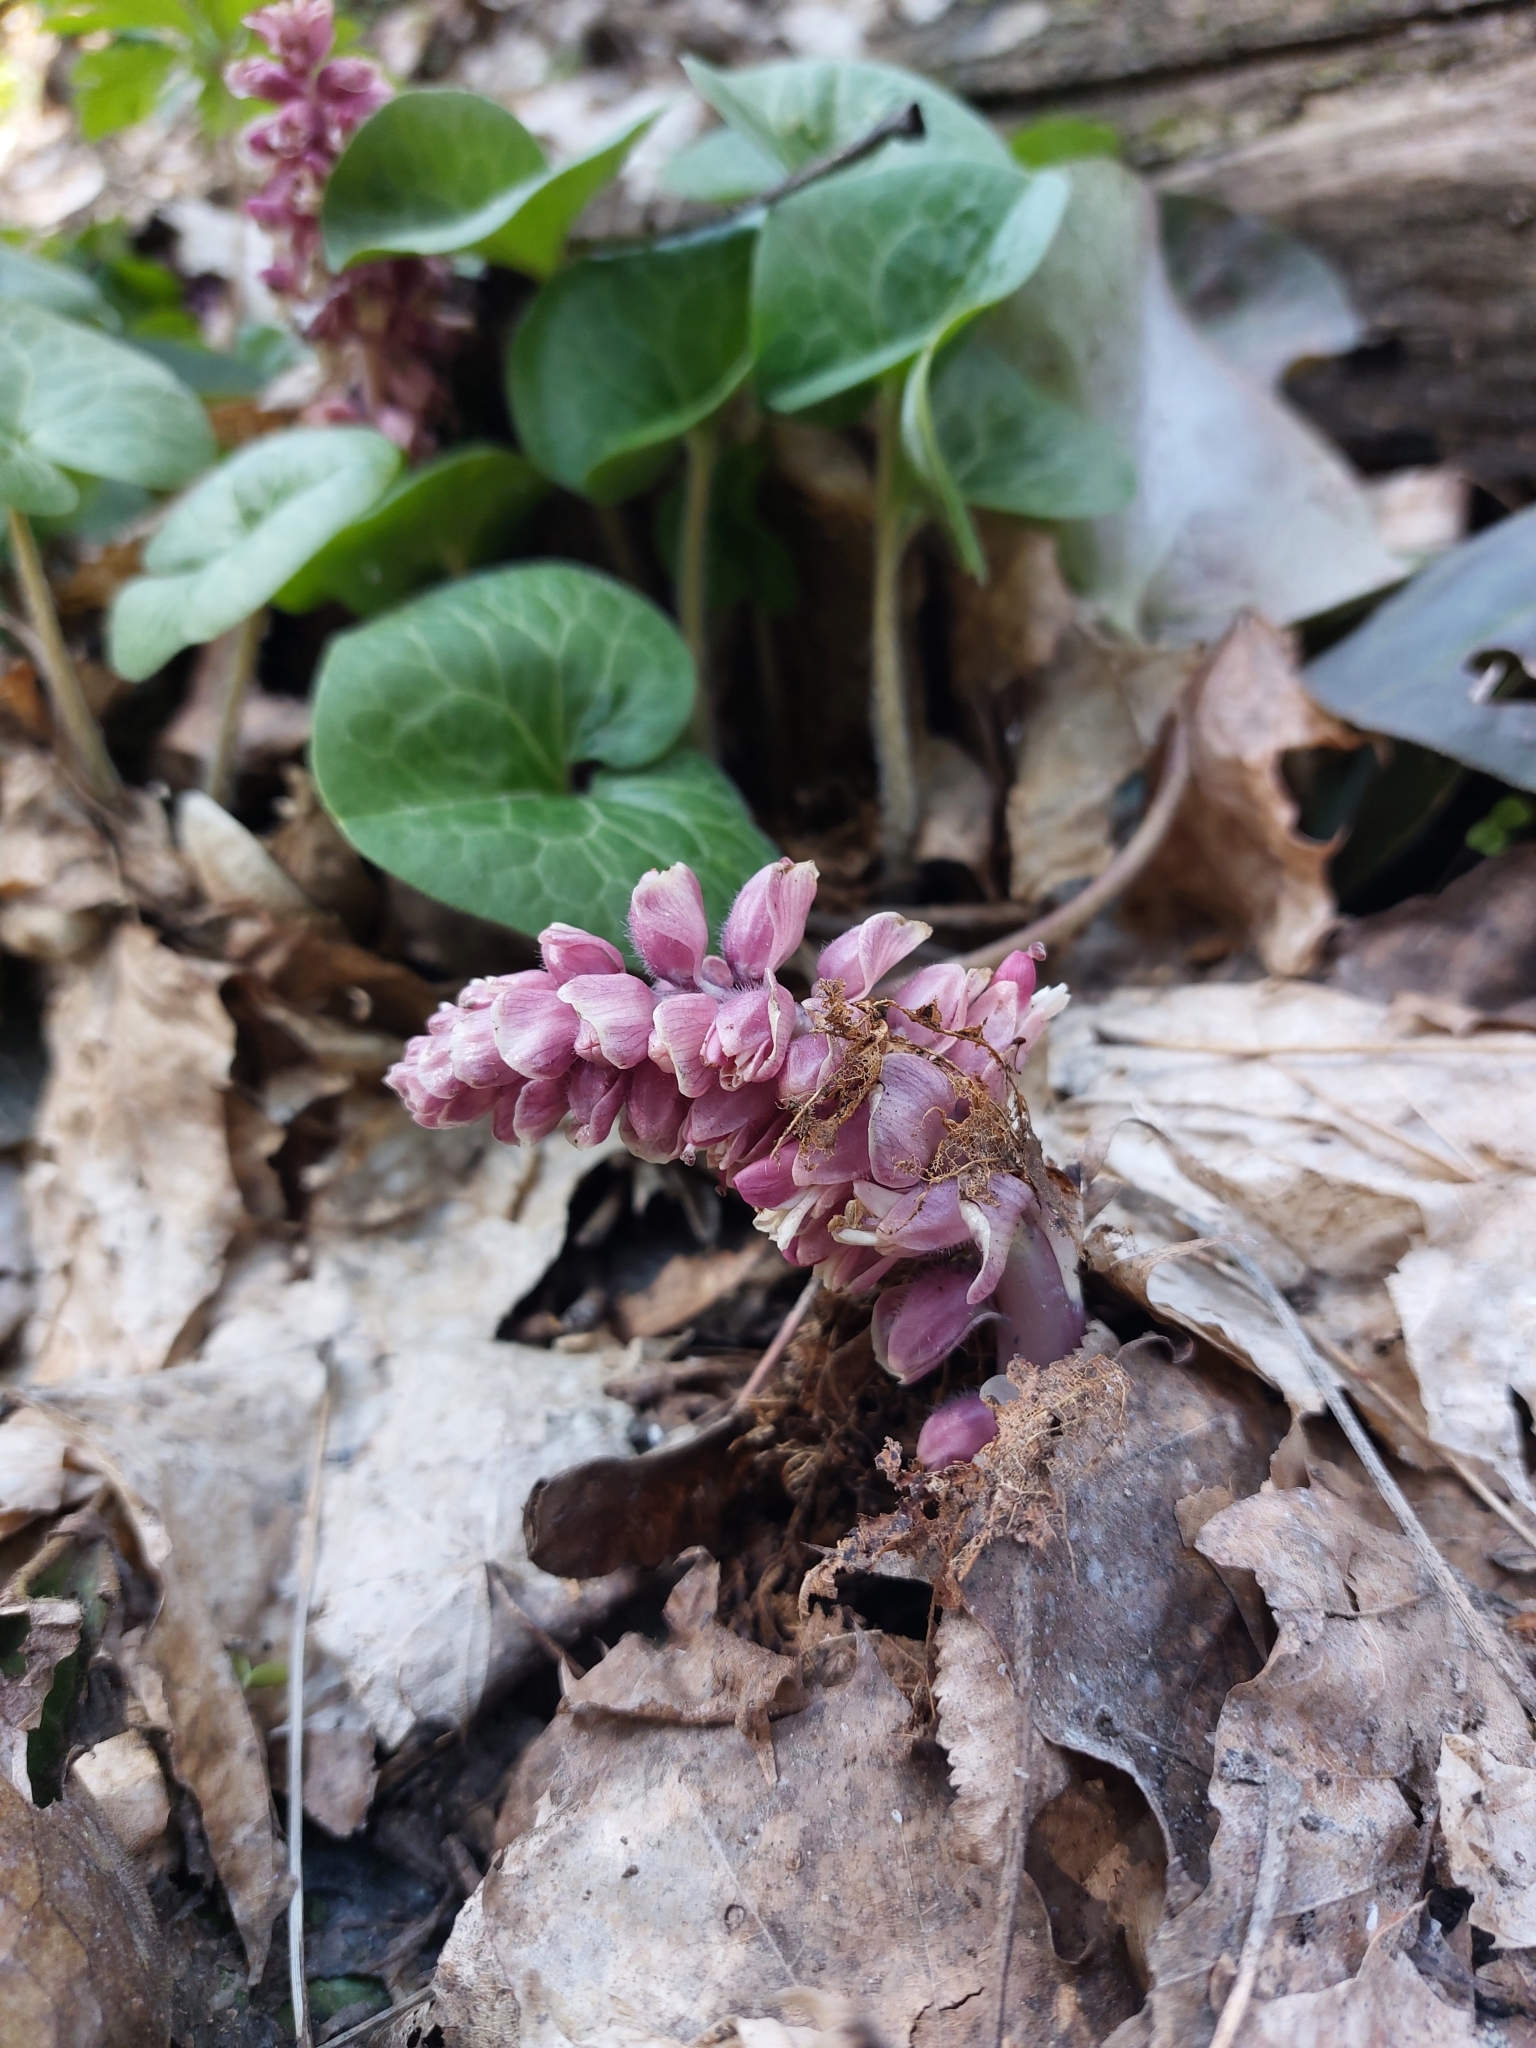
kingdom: Plantae
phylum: Tracheophyta
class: Magnoliopsida
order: Lamiales
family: Orobanchaceae
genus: Lathraea
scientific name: Lathraea squamaria
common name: Toothwort
